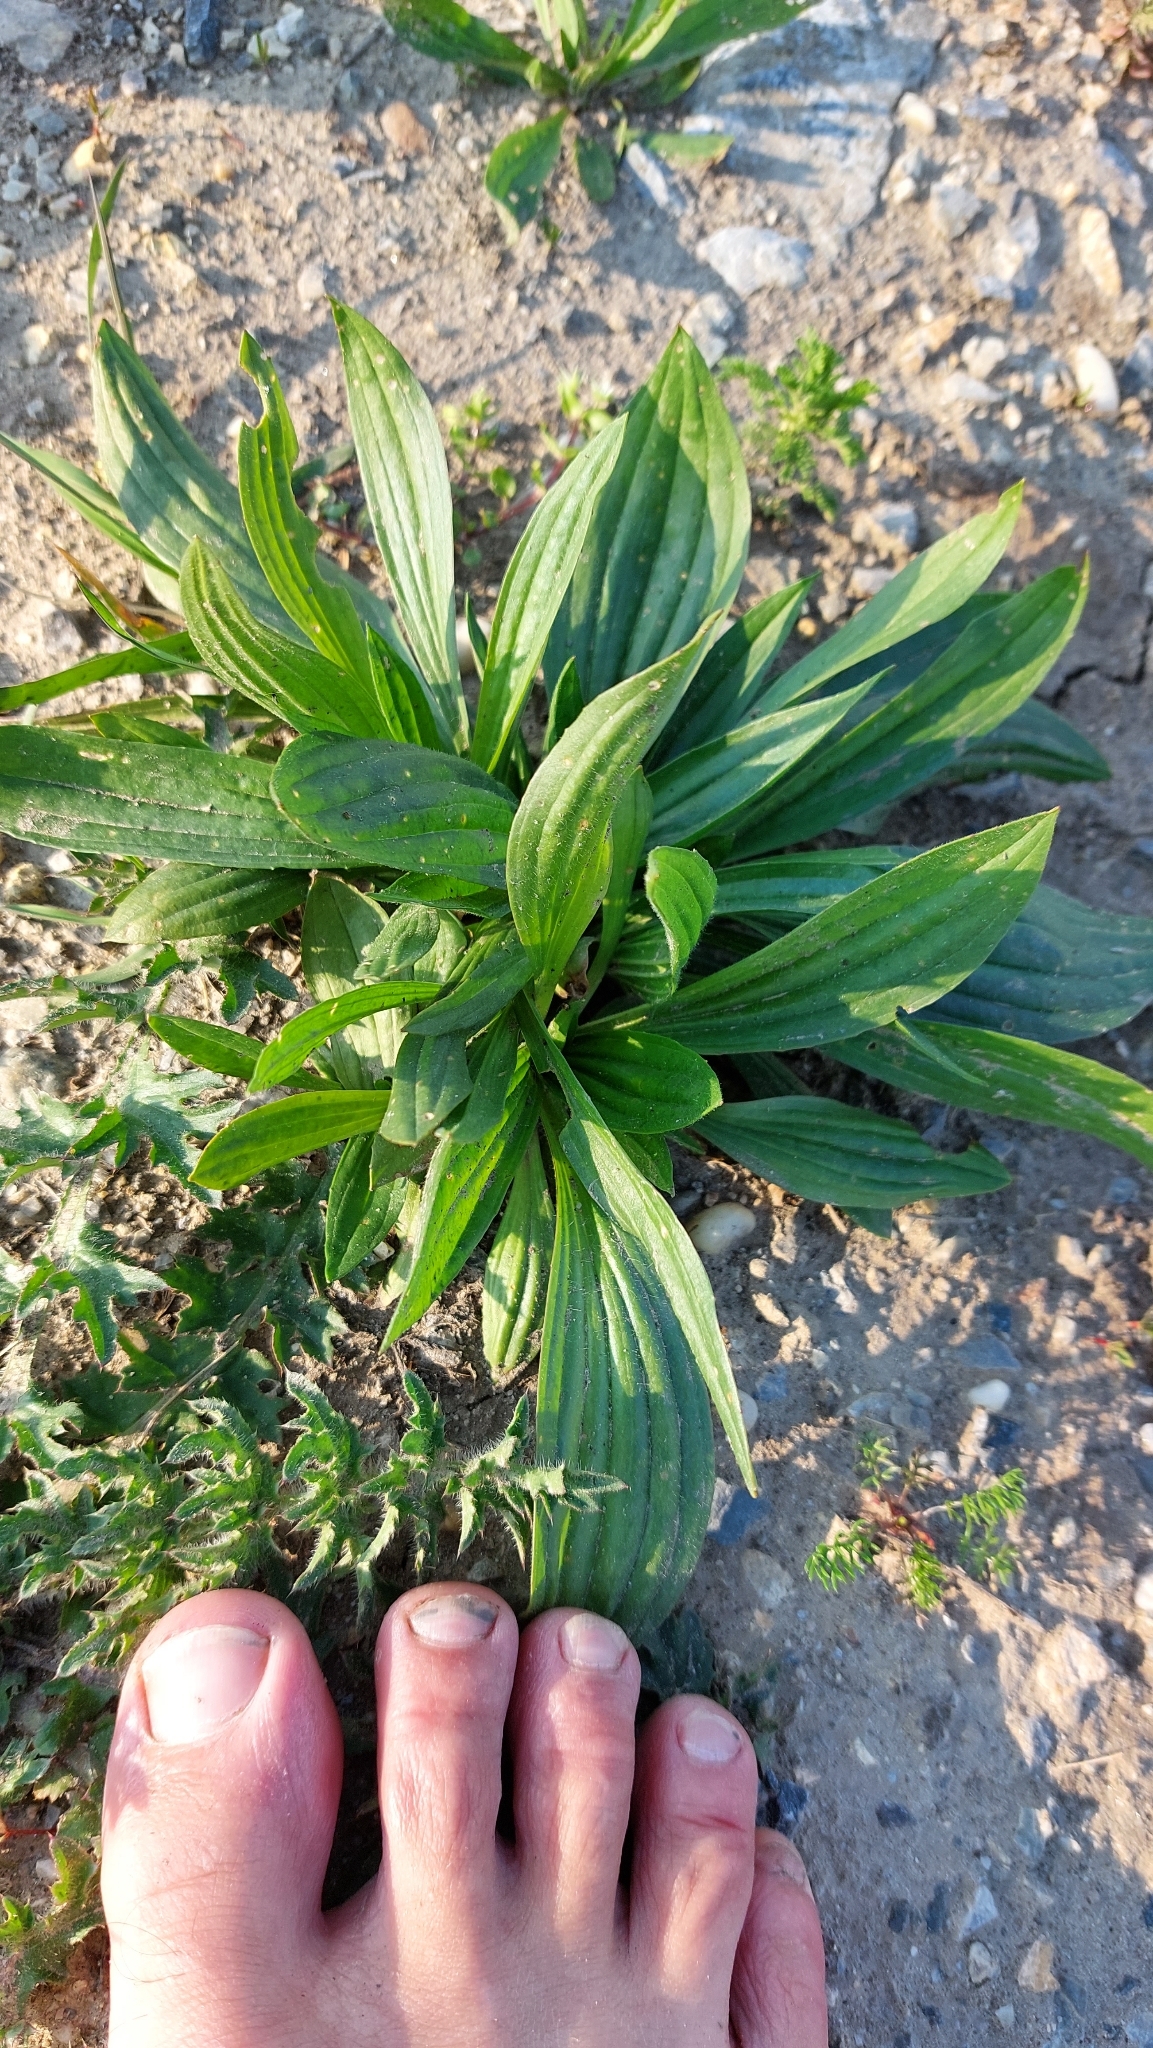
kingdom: Plantae
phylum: Tracheophyta
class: Magnoliopsida
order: Lamiales
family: Plantaginaceae
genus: Plantago
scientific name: Plantago lanceolata
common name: Ribwort plantain
